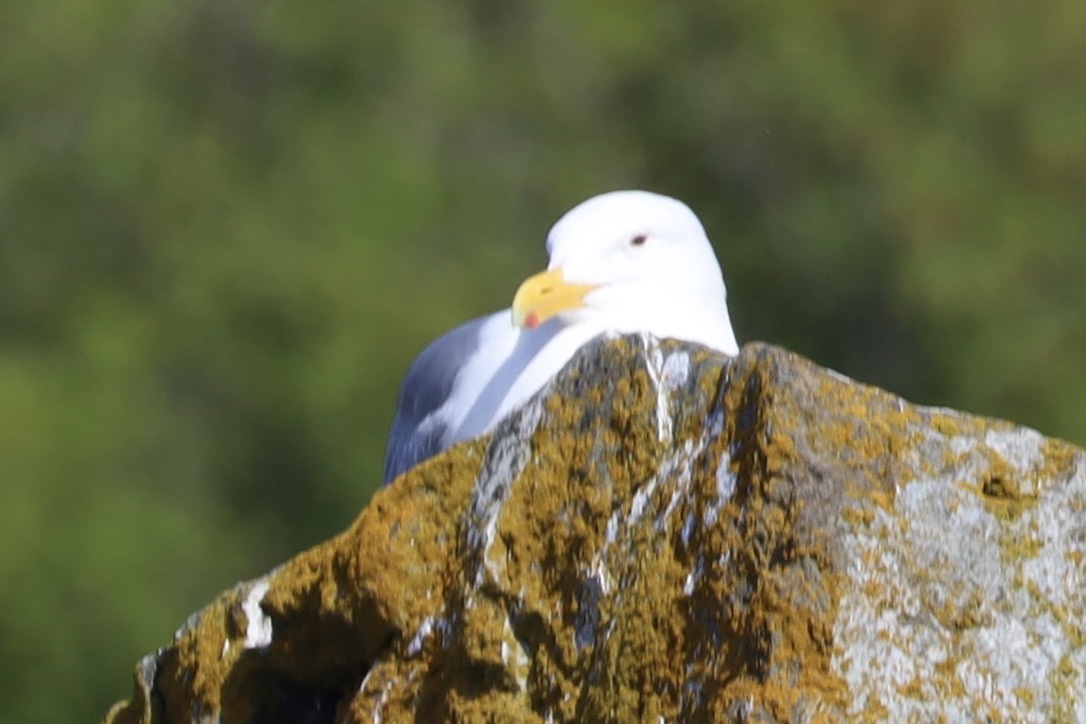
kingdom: Animalia
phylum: Chordata
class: Aves
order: Charadriiformes
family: Laridae
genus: Larus
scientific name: Larus glaucescens
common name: Glaucous-winged gull
